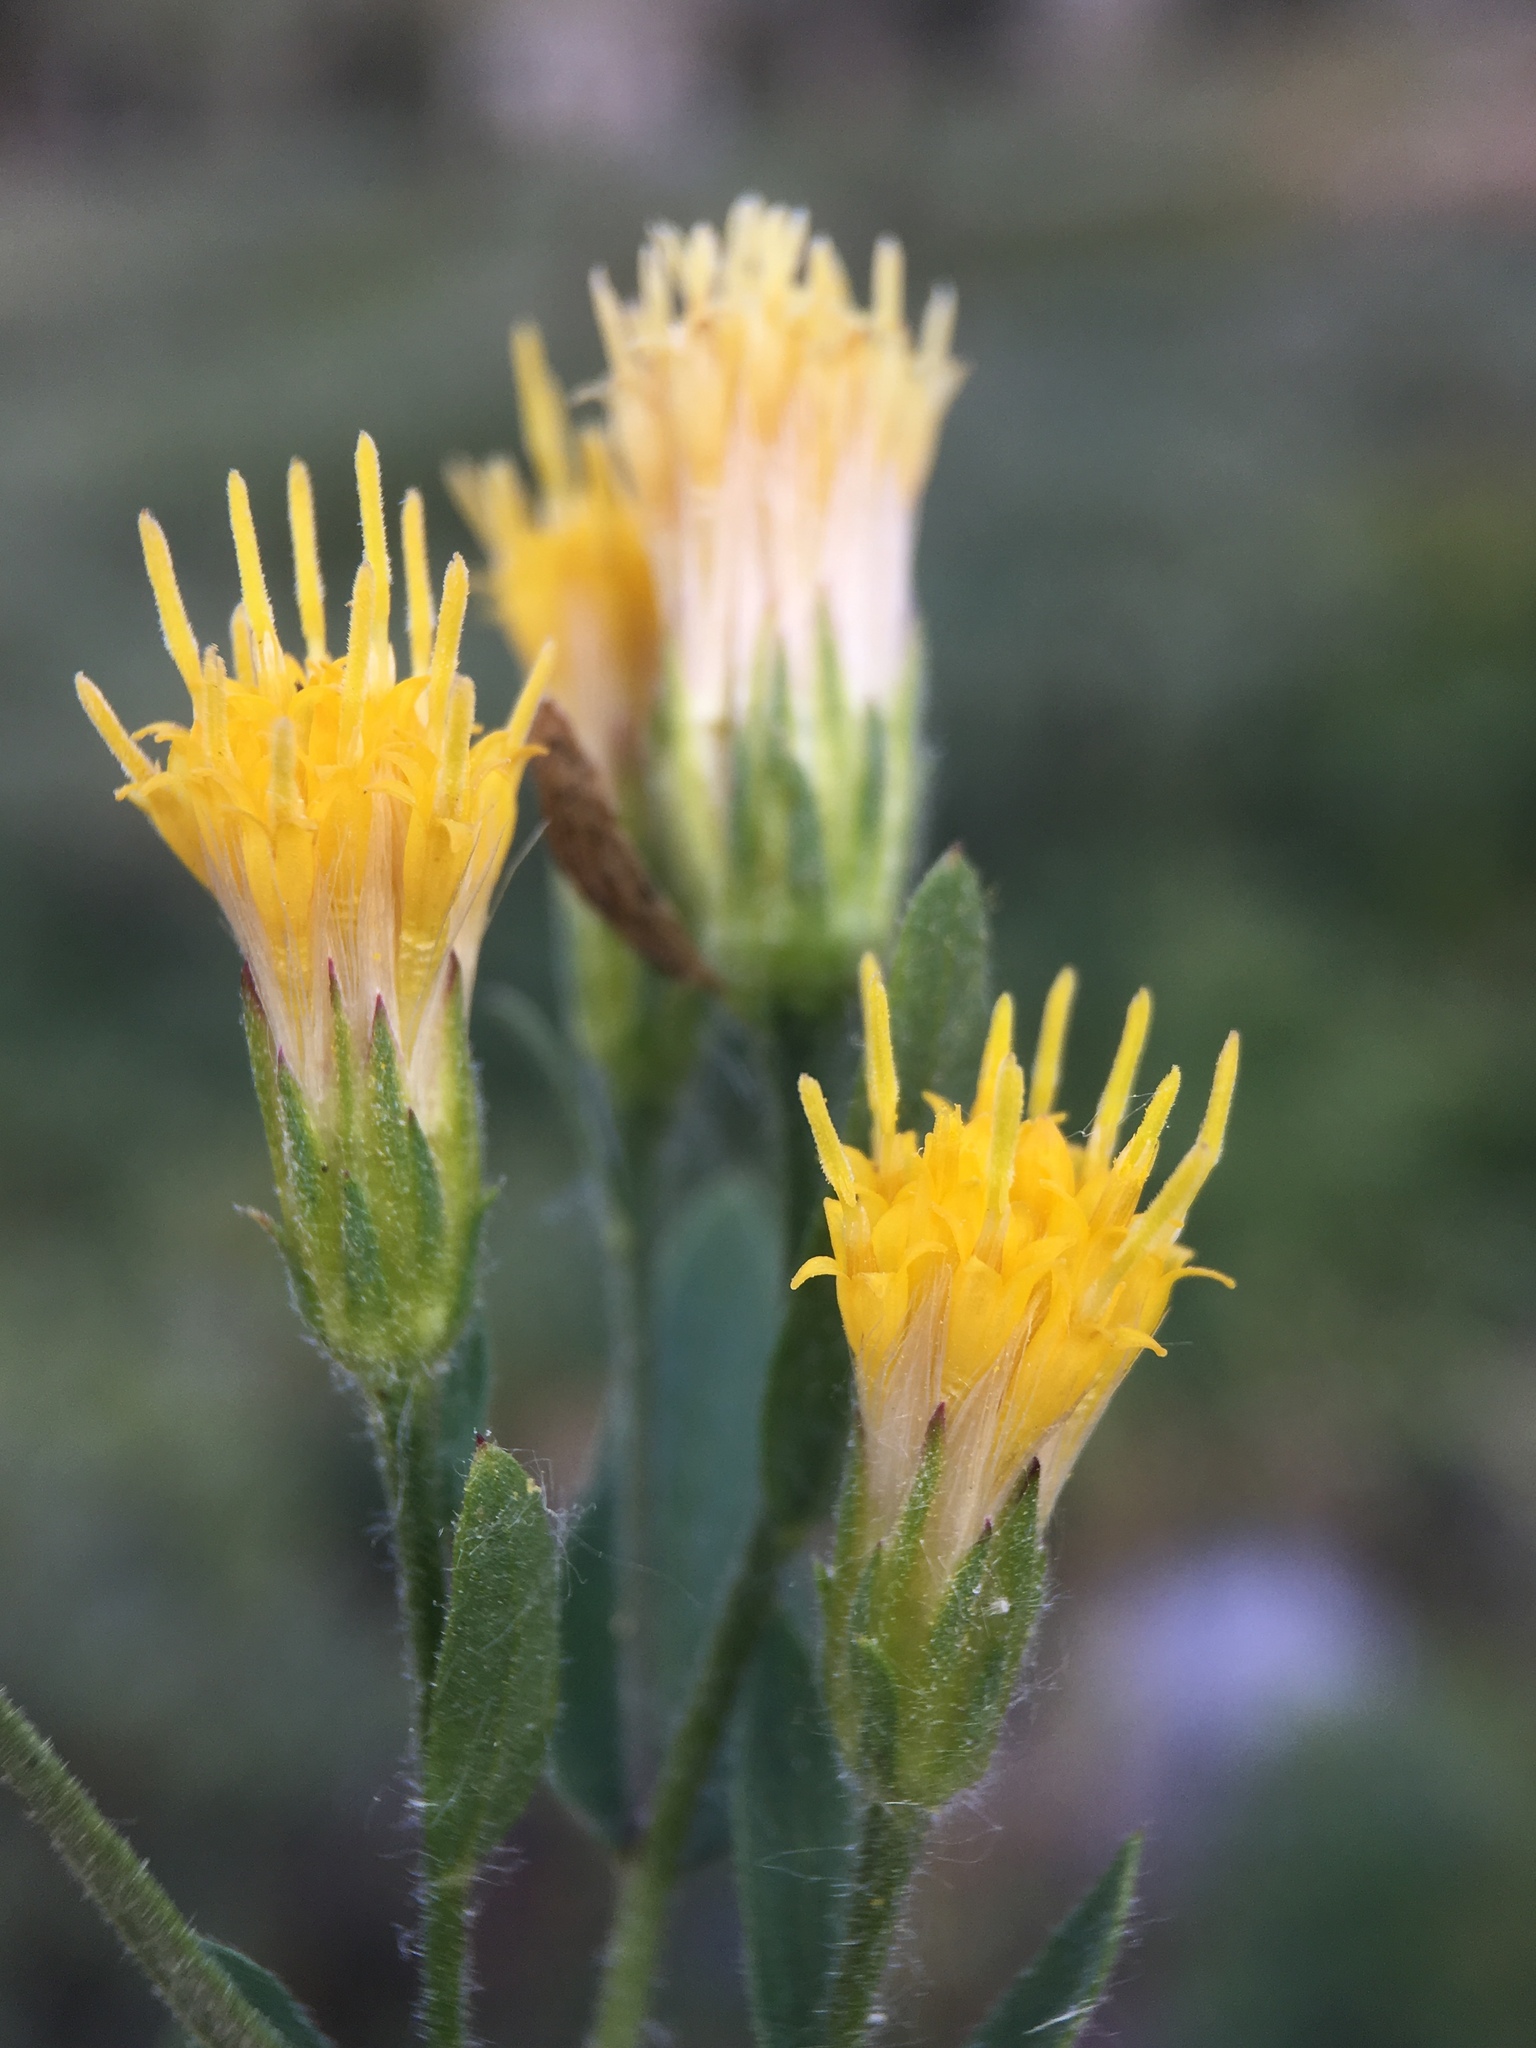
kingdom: Plantae
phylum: Tracheophyta
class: Magnoliopsida
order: Asterales
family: Asteraceae
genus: Eucephalus
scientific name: Eucephalus breweri
